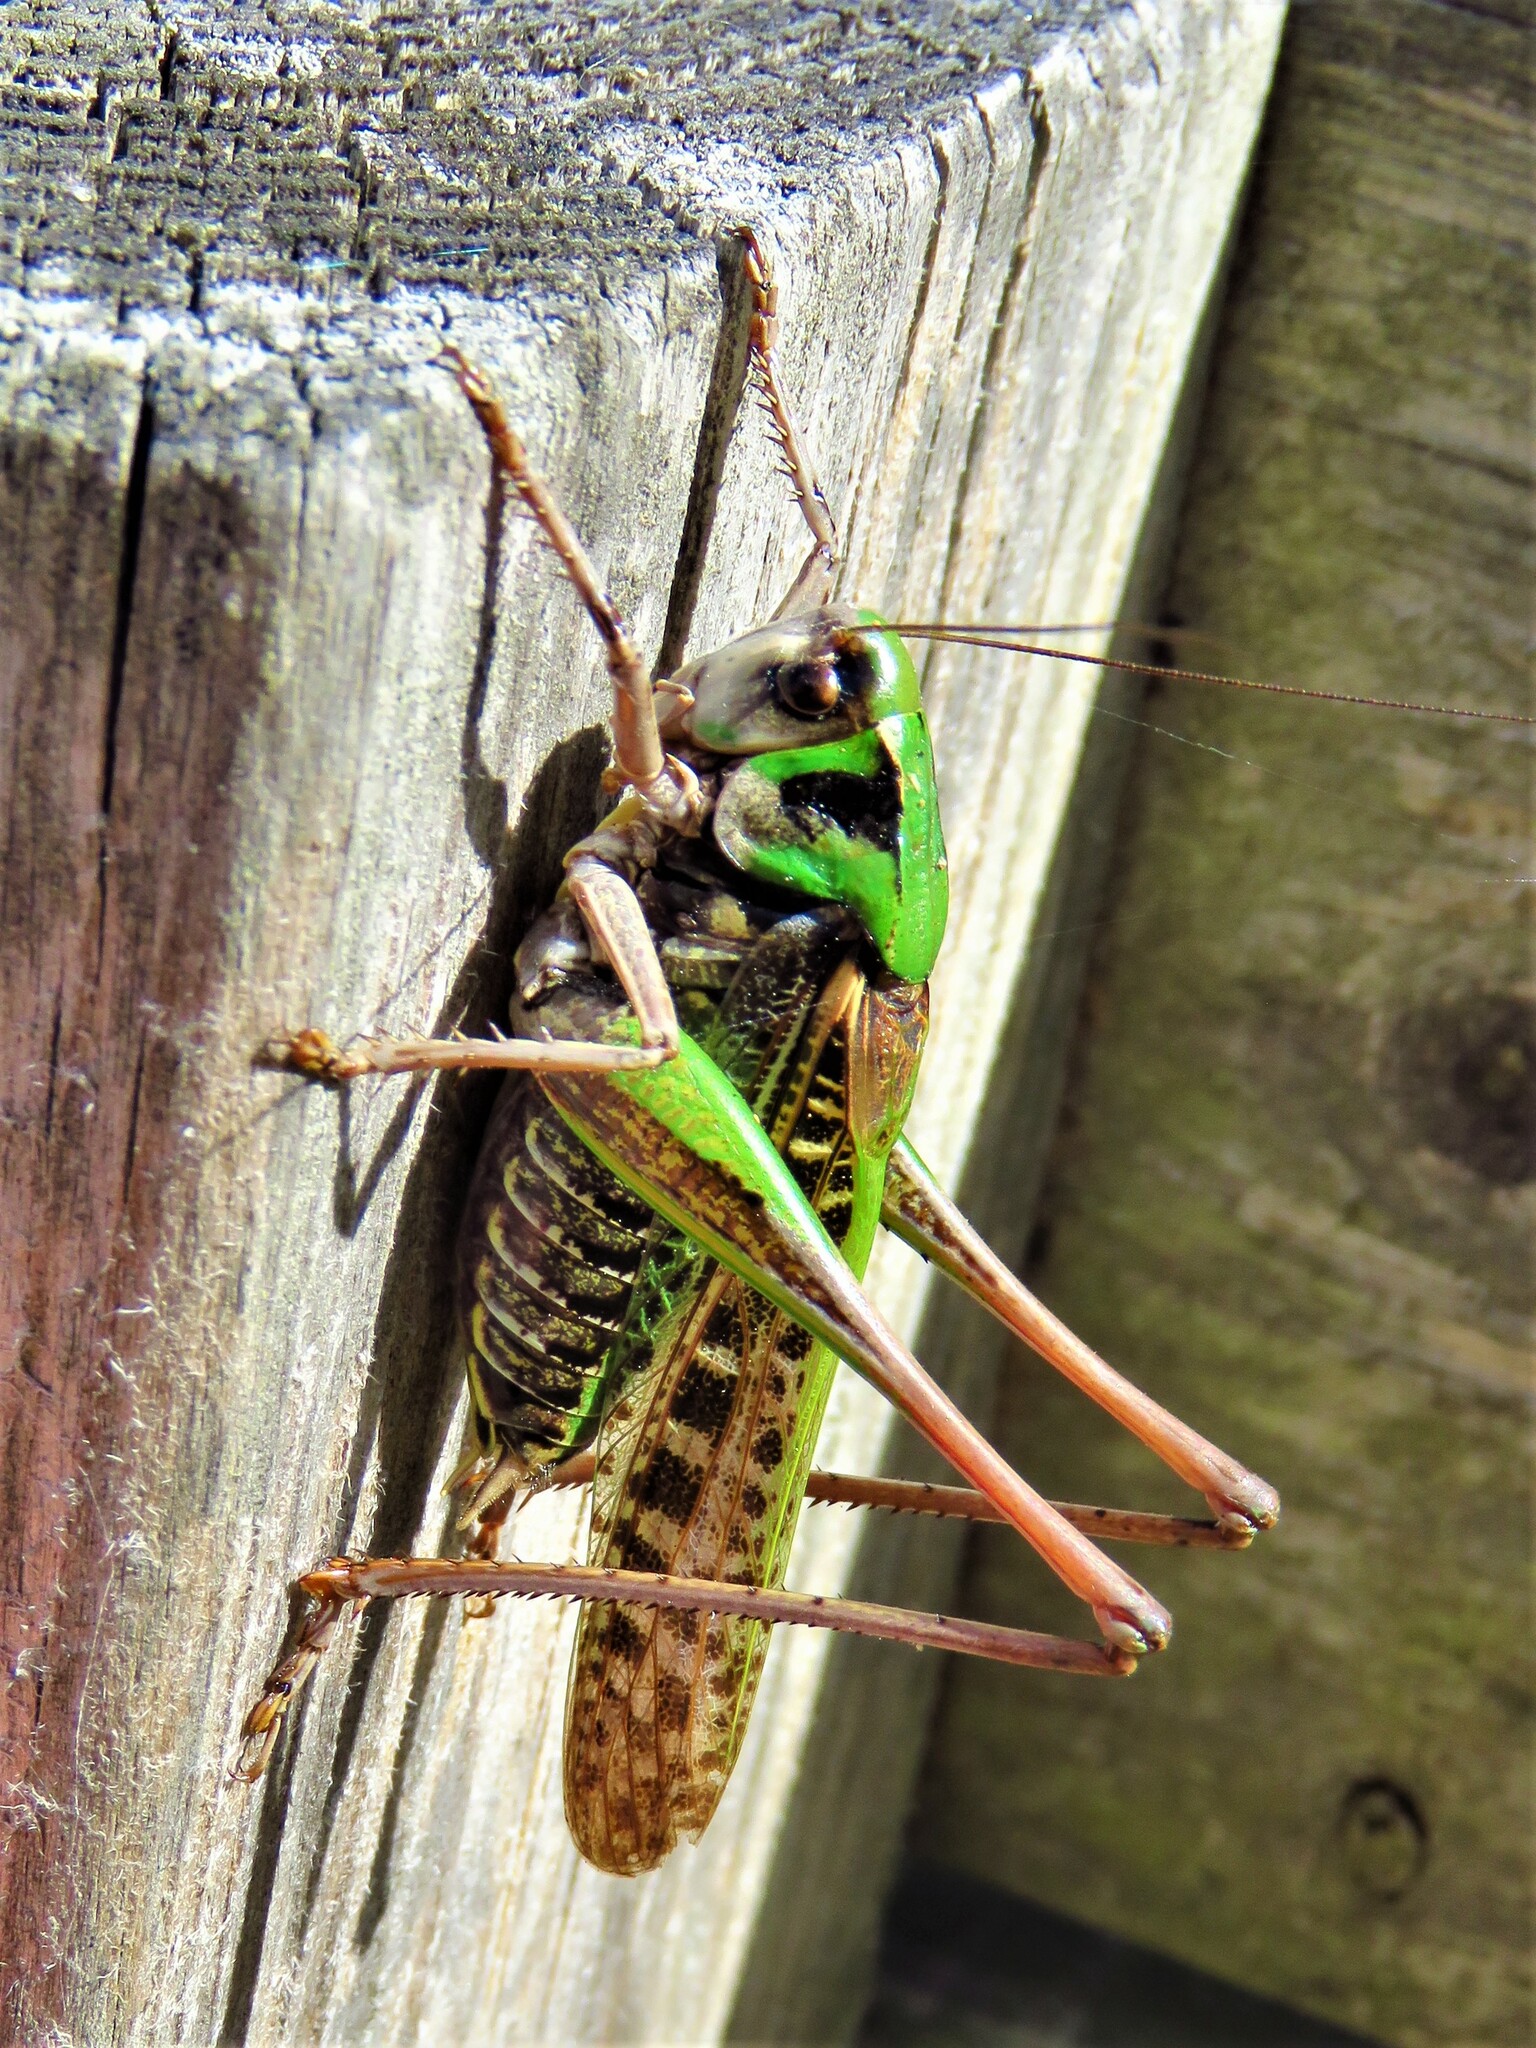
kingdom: Animalia
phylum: Arthropoda
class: Insecta
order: Orthoptera
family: Tettigoniidae
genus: Decticus
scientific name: Decticus verrucivorus
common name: Wart-biter
